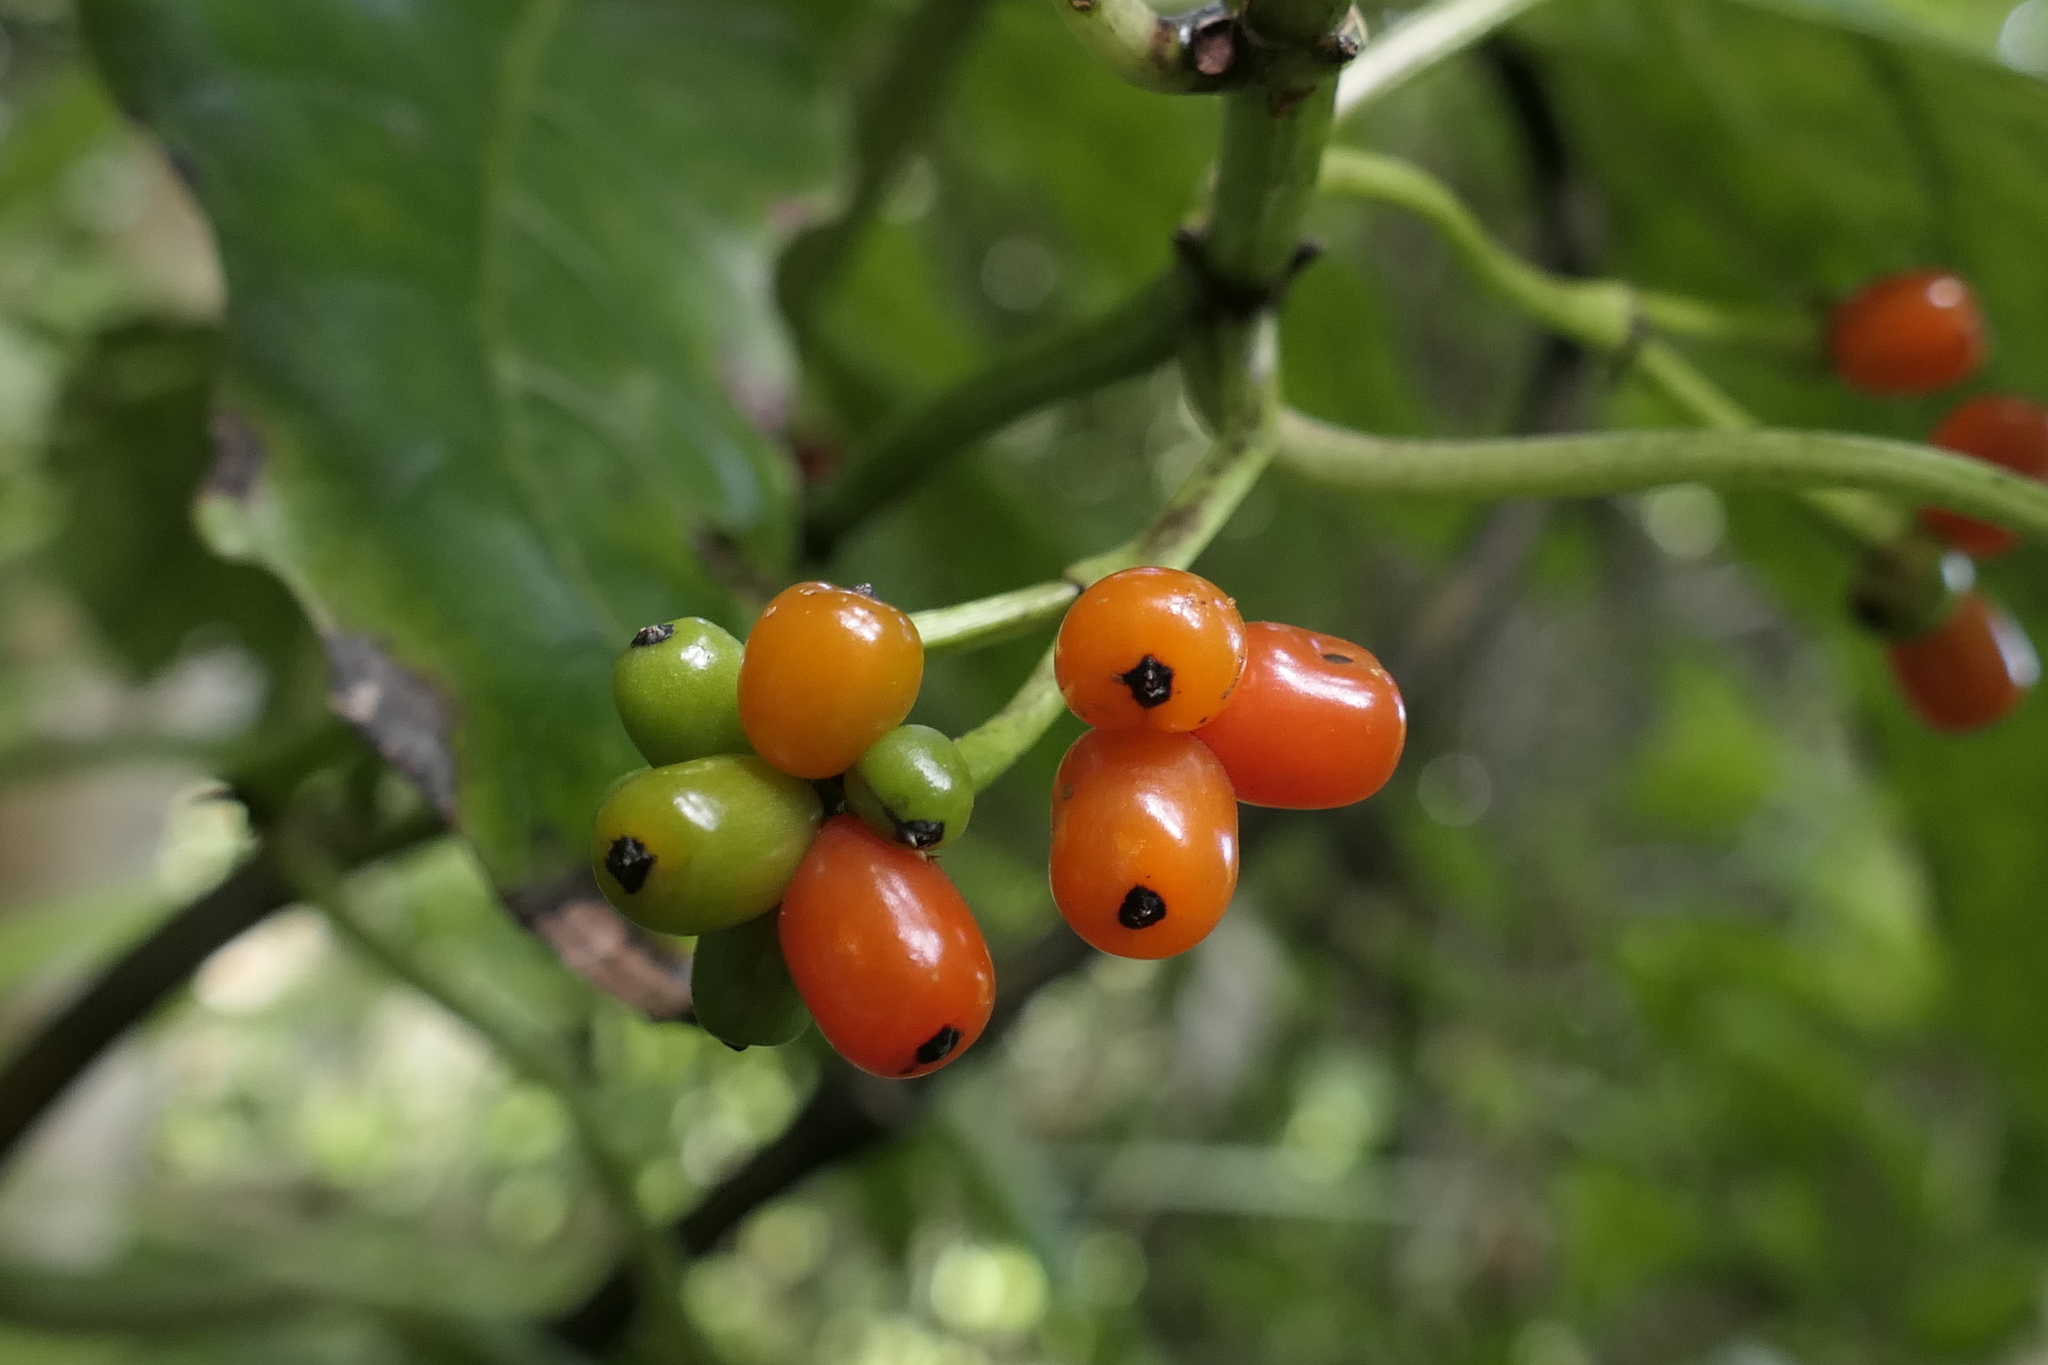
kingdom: Plantae
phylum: Tracheophyta
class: Magnoliopsida
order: Gentianales
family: Rubiaceae
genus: Coprosma
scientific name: Coprosma autumnalis
